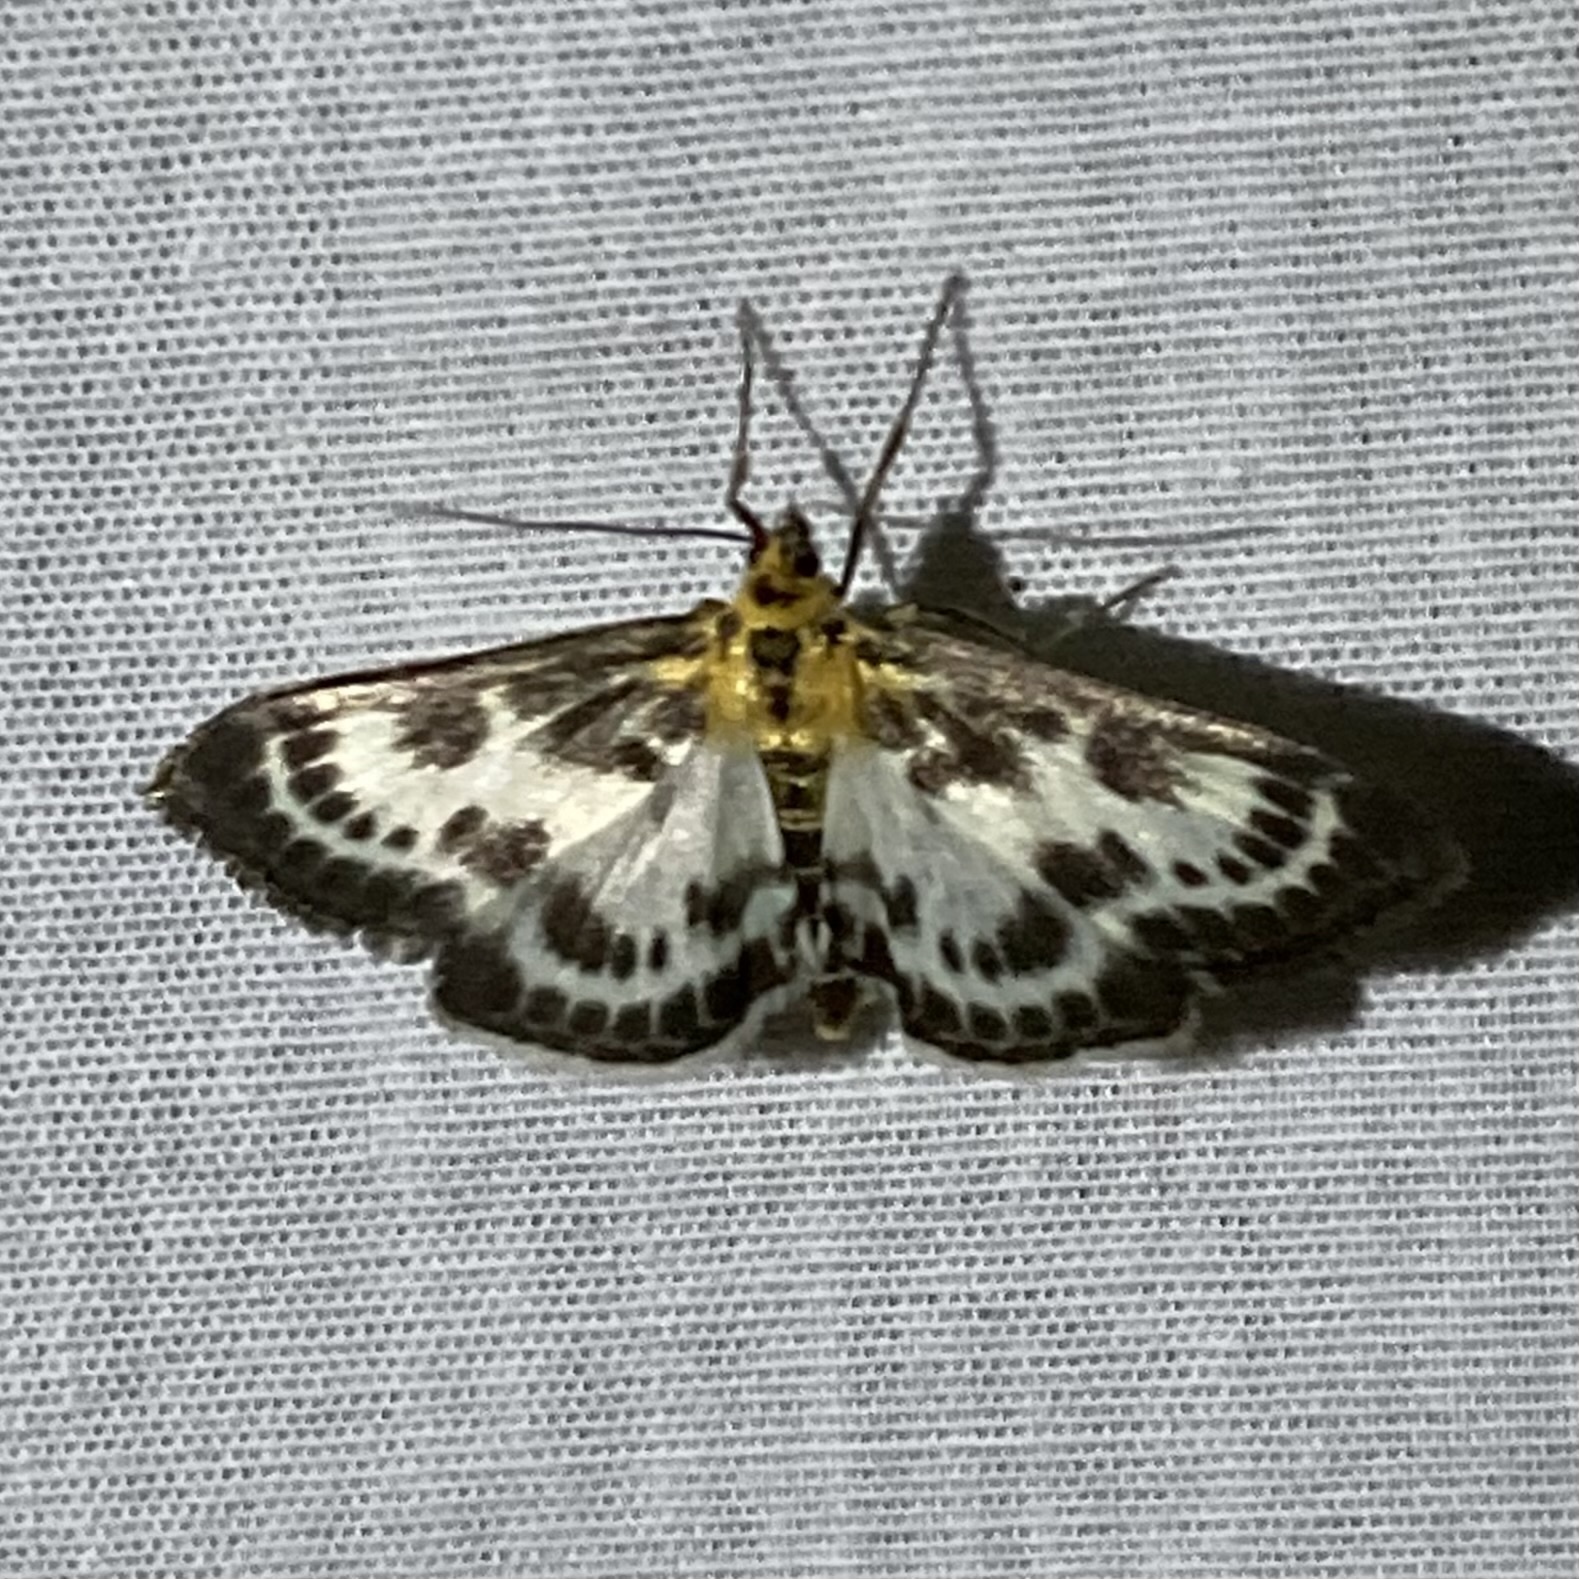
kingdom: Animalia
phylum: Arthropoda
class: Insecta
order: Lepidoptera
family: Crambidae
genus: Anania
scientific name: Anania hortulata
